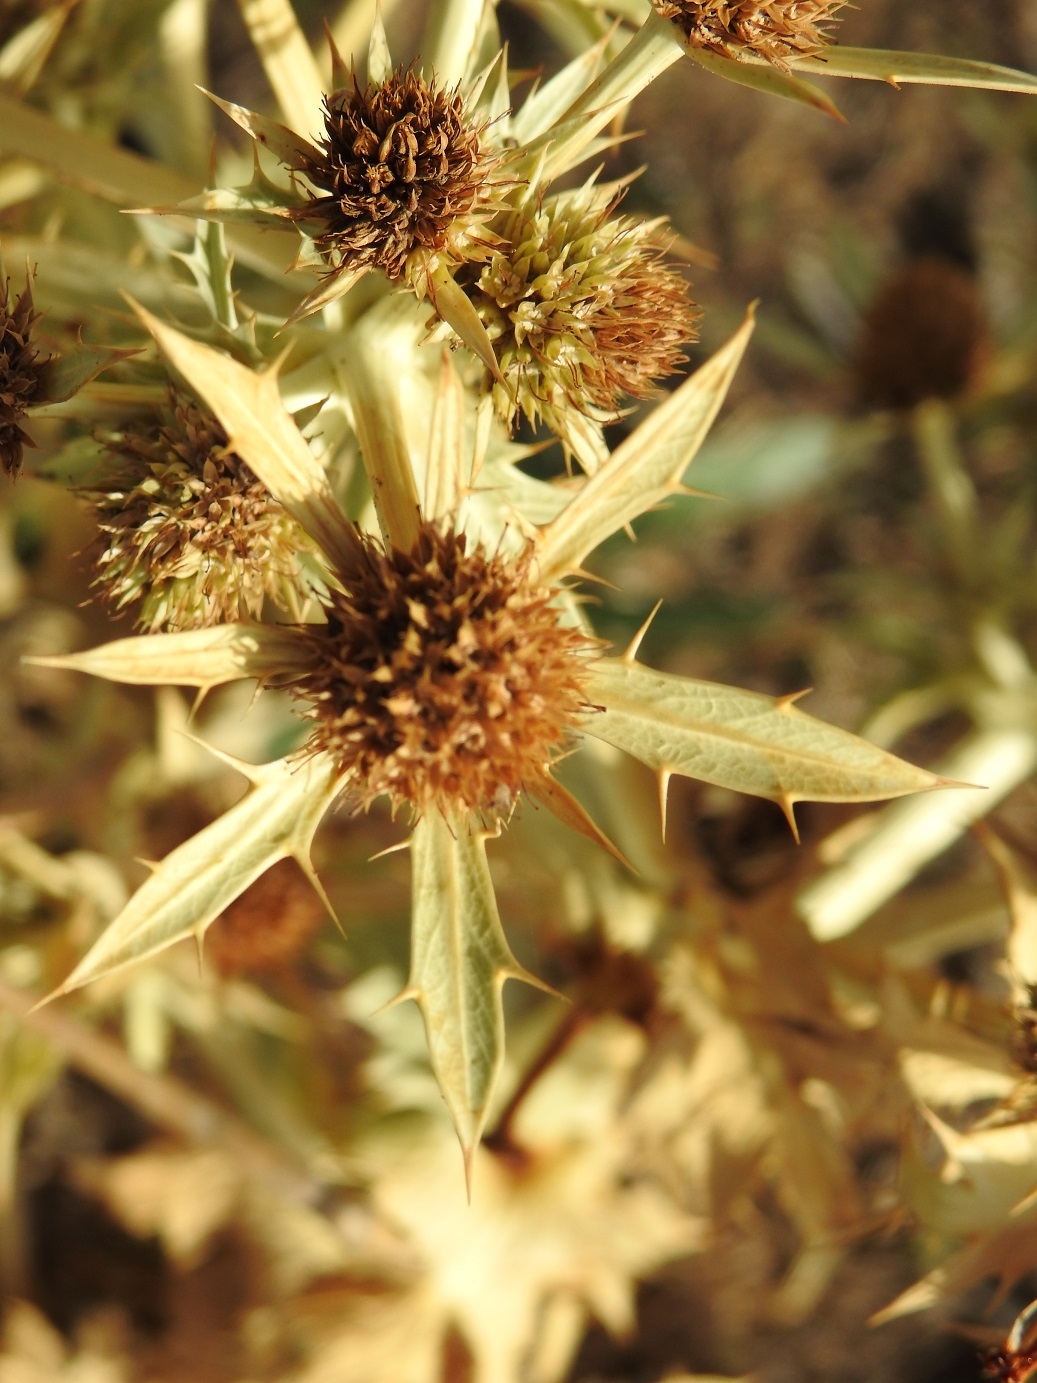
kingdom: Plantae
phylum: Tracheophyta
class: Magnoliopsida
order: Apiales
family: Apiaceae
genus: Eryngium
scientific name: Eryngium campestre
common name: Field eryngo
